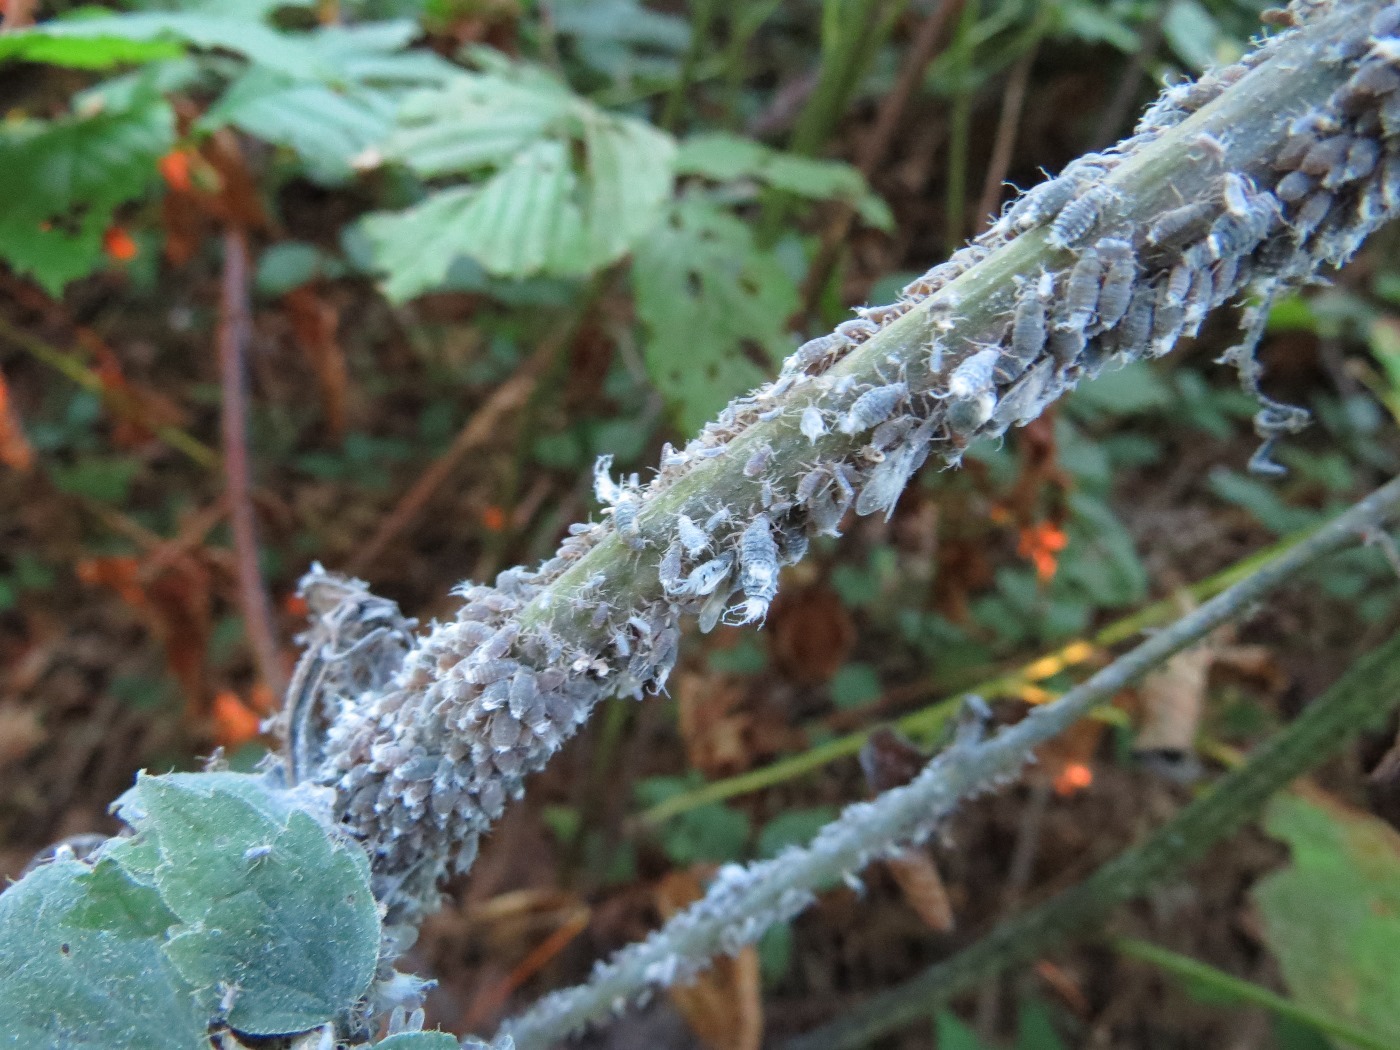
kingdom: Animalia
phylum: Arthropoda
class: Insecta
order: Hemiptera
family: Aphididae
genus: Neoprociphilus
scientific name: Neoprociphilus aceris
